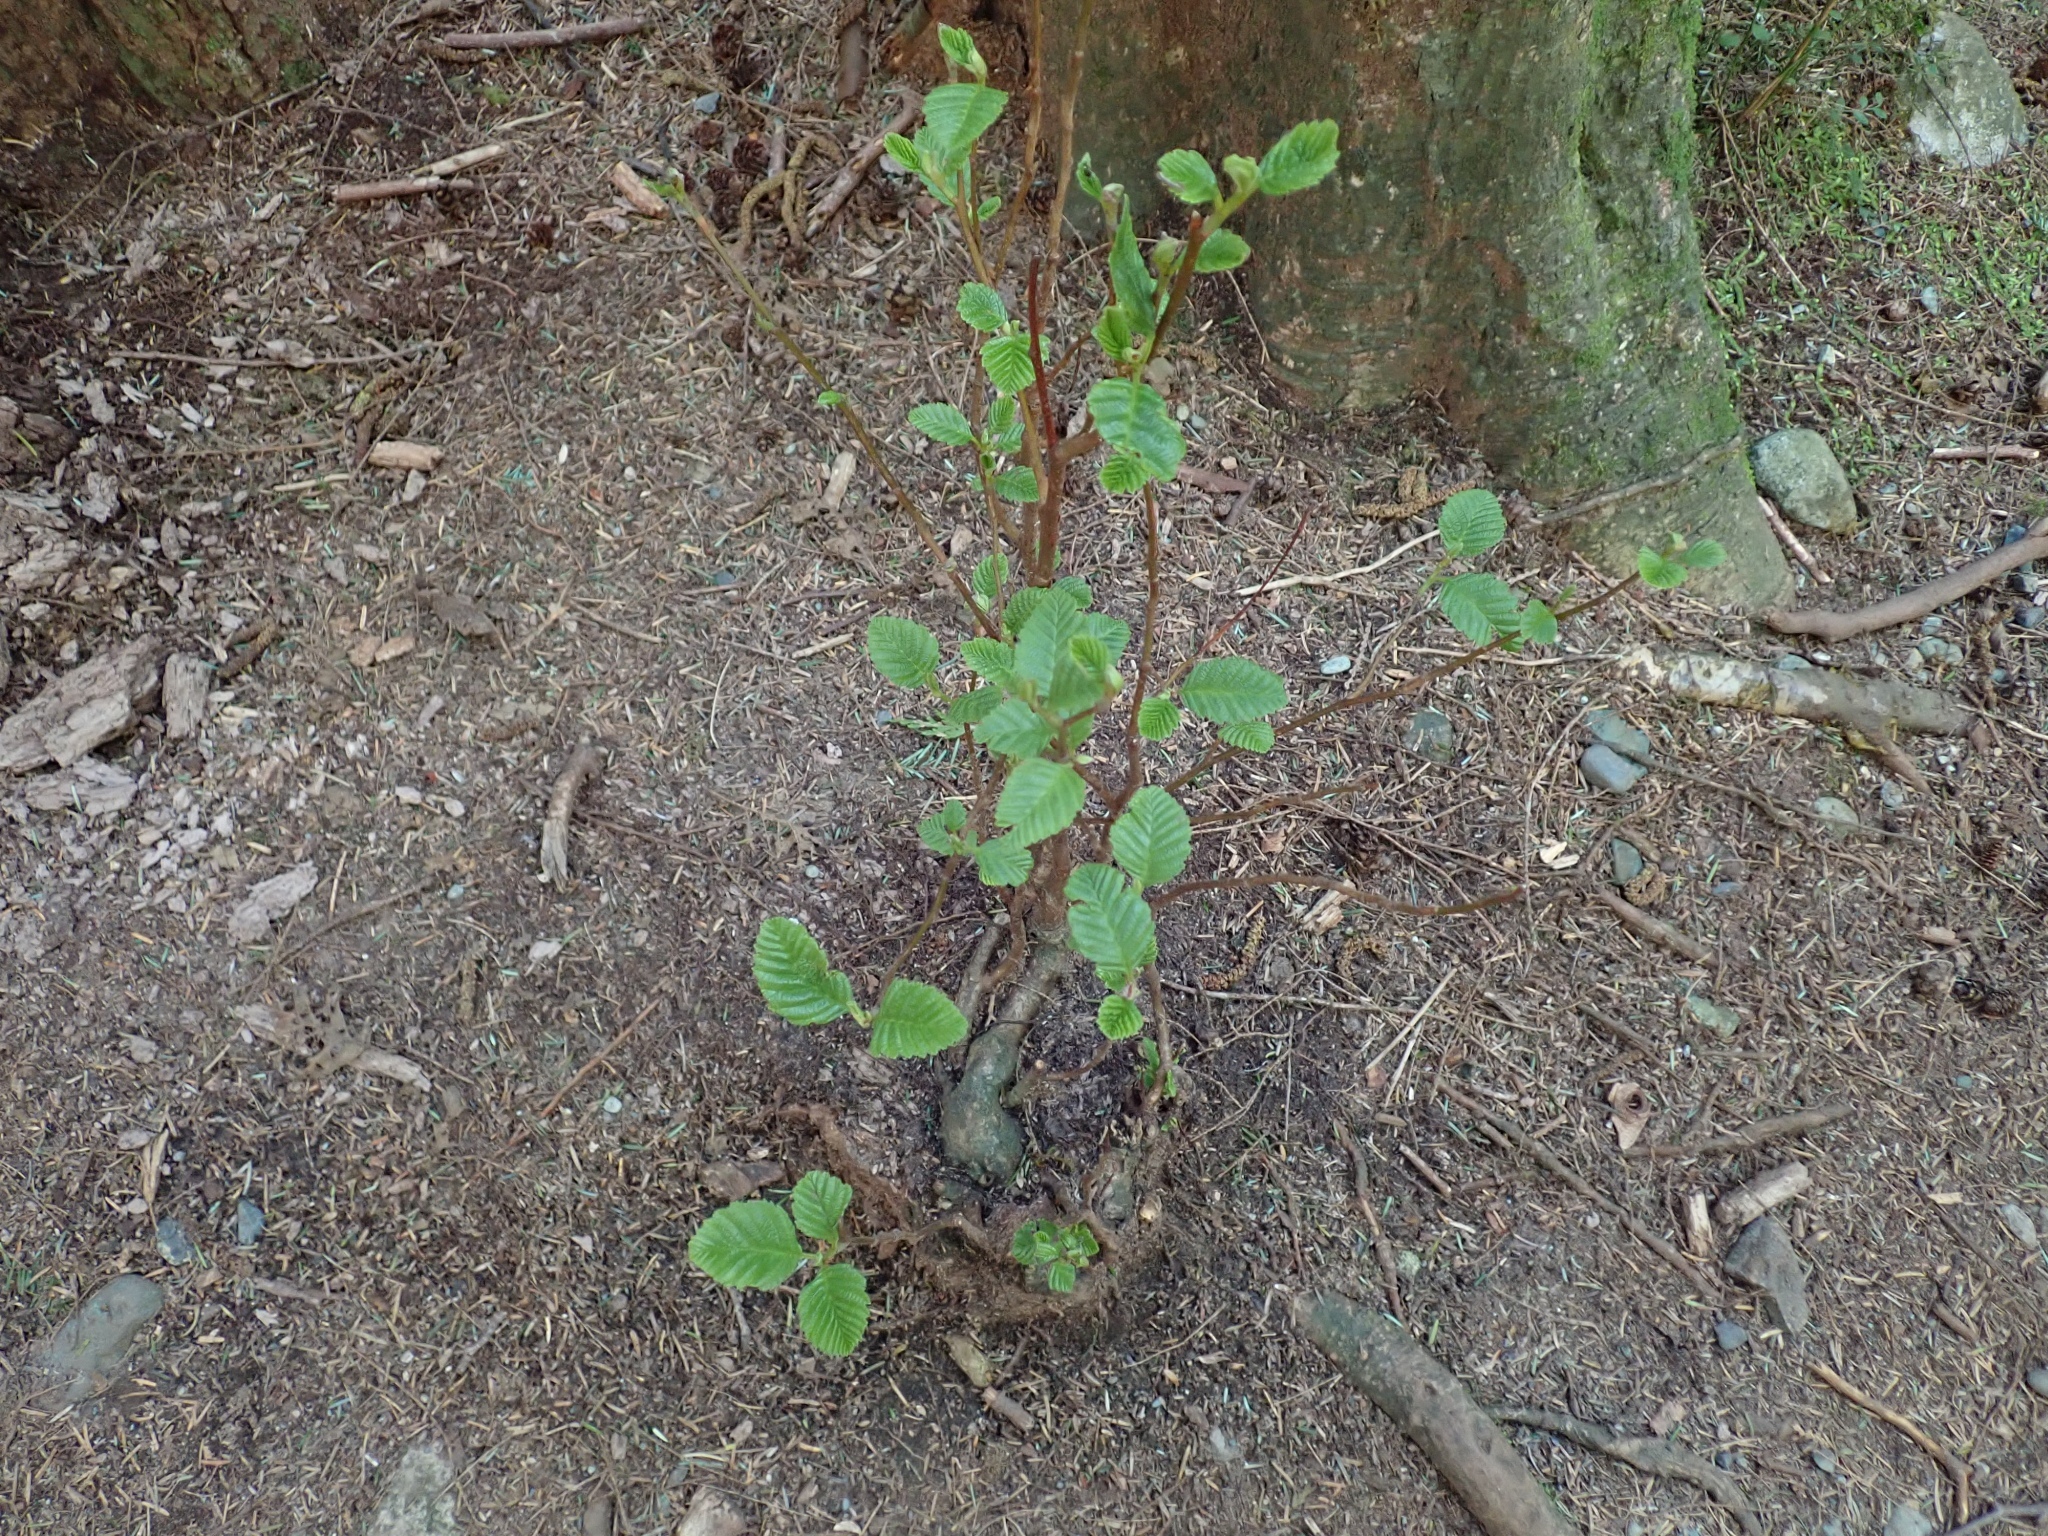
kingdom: Plantae
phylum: Tracheophyta
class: Magnoliopsida
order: Fagales
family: Betulaceae
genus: Alnus
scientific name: Alnus rubra
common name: Red alder
